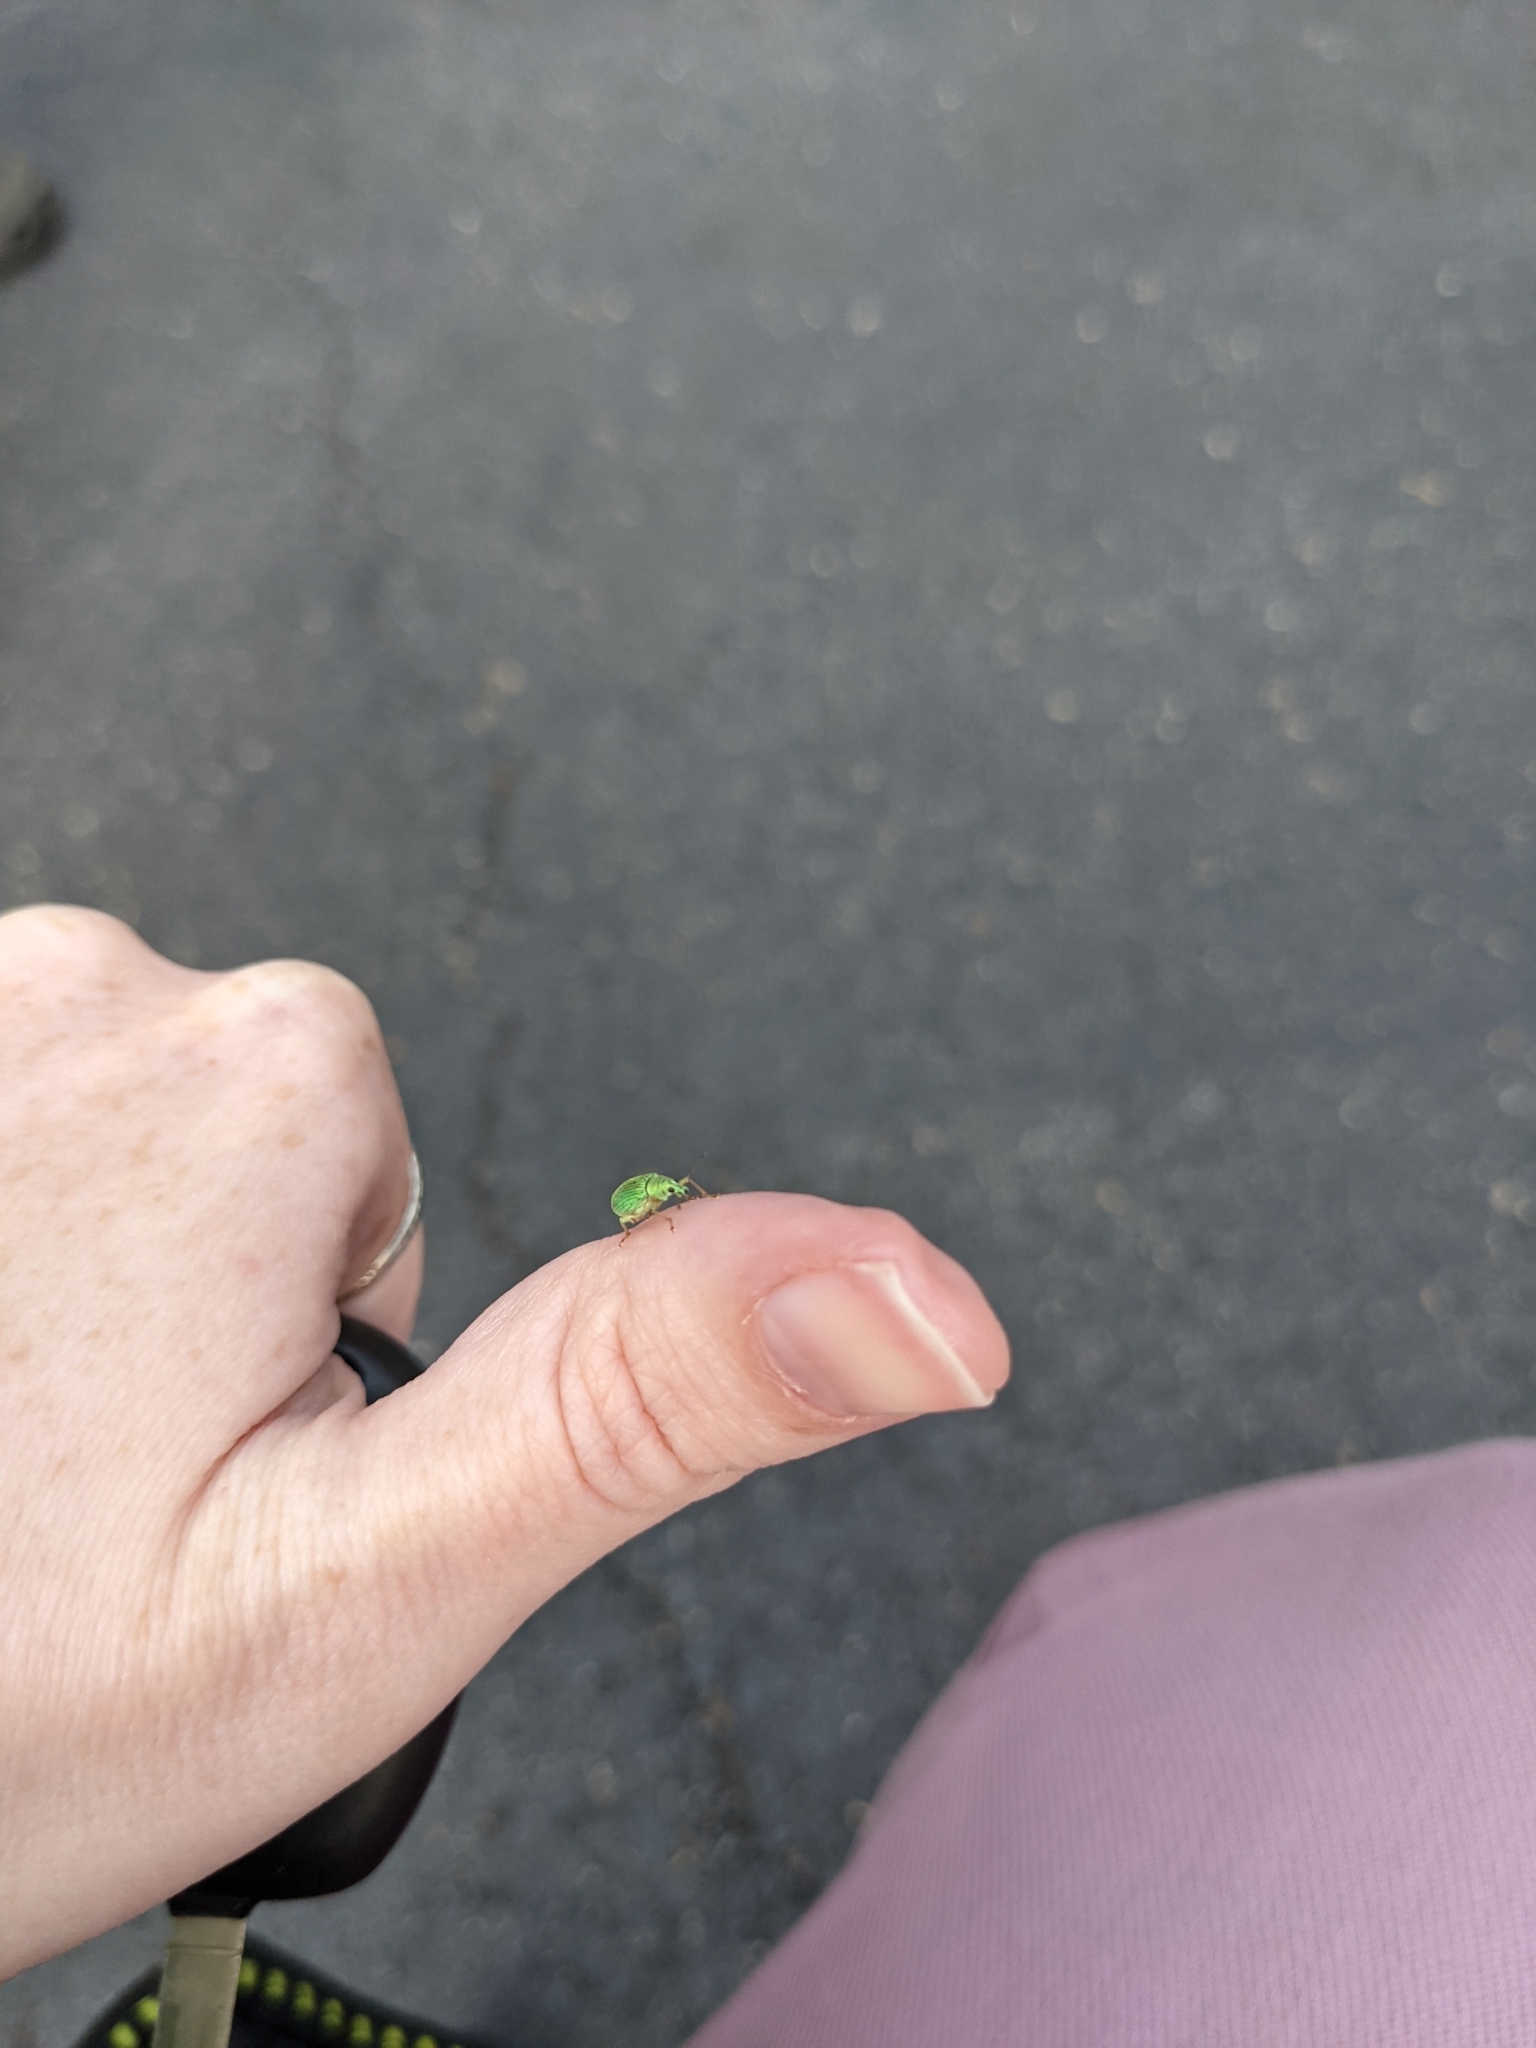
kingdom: Animalia
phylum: Arthropoda
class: Insecta
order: Coleoptera
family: Curculionidae
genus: Polydrusus
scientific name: Polydrusus formosus
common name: Weevil
